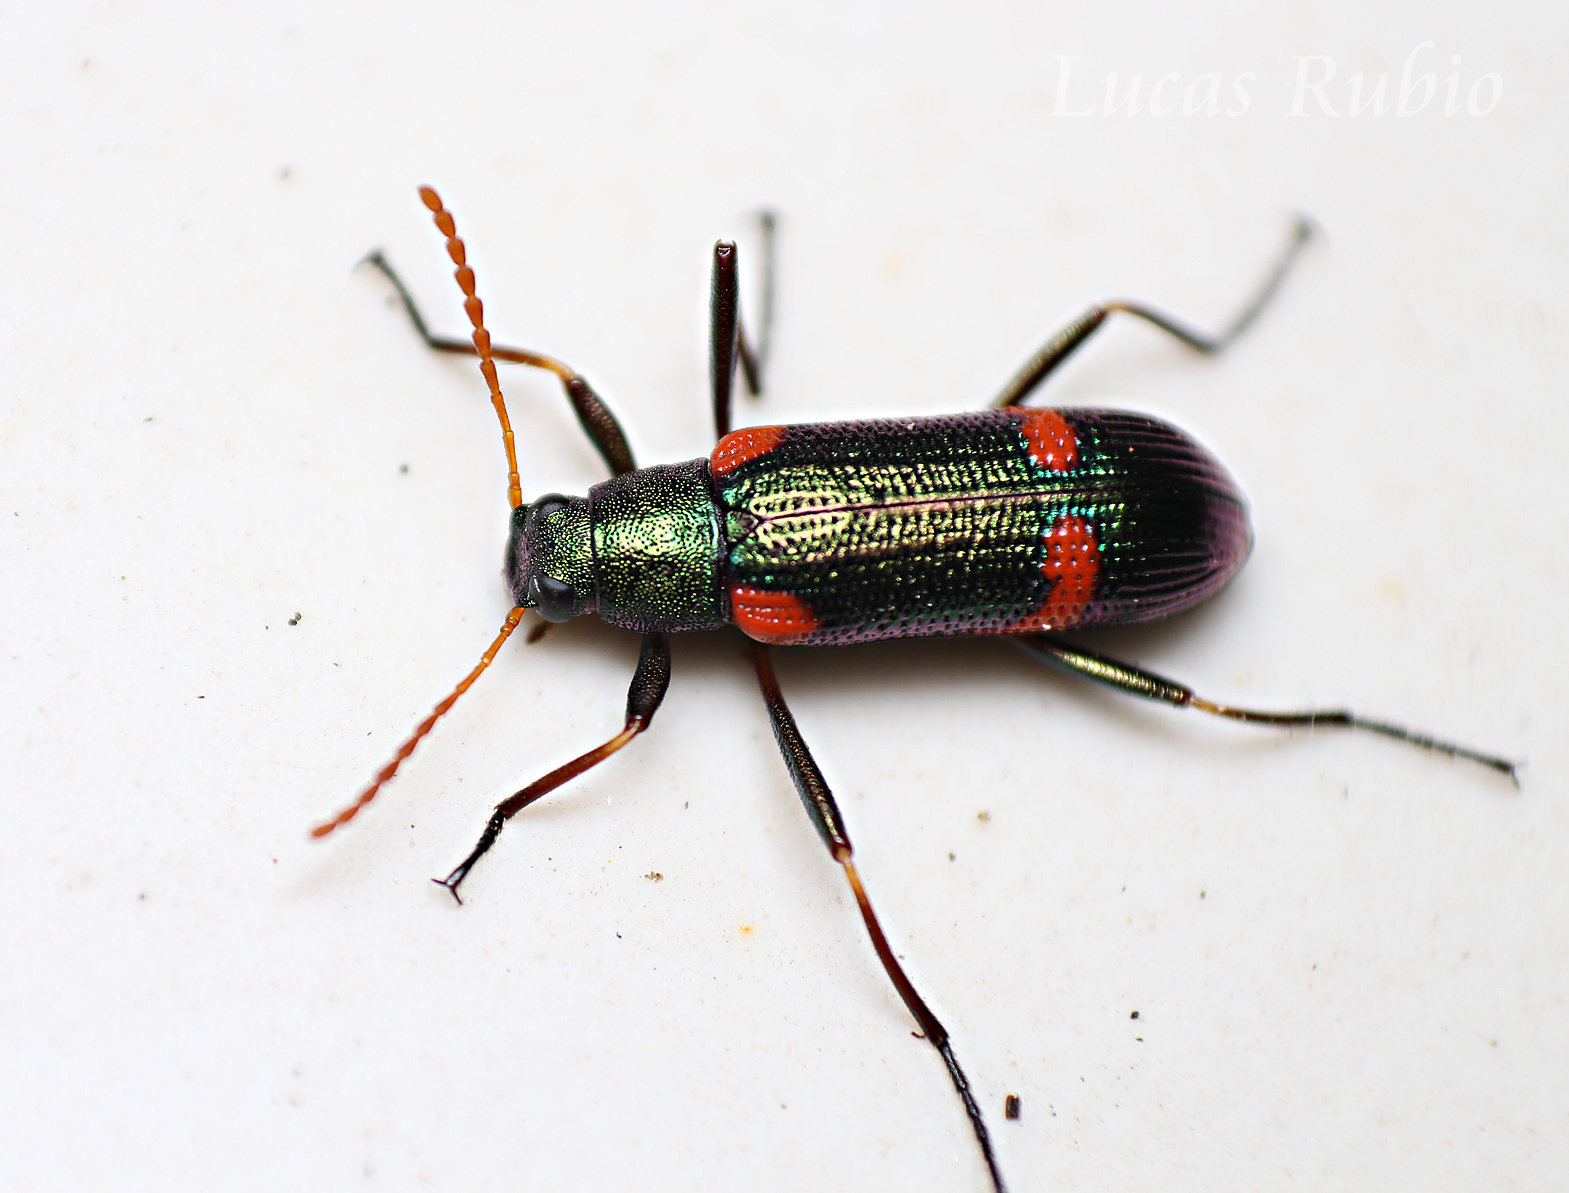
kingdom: Animalia
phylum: Arthropoda
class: Insecta
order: Coleoptera
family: Tenebrionidae
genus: Strongylium
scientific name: Strongylium
